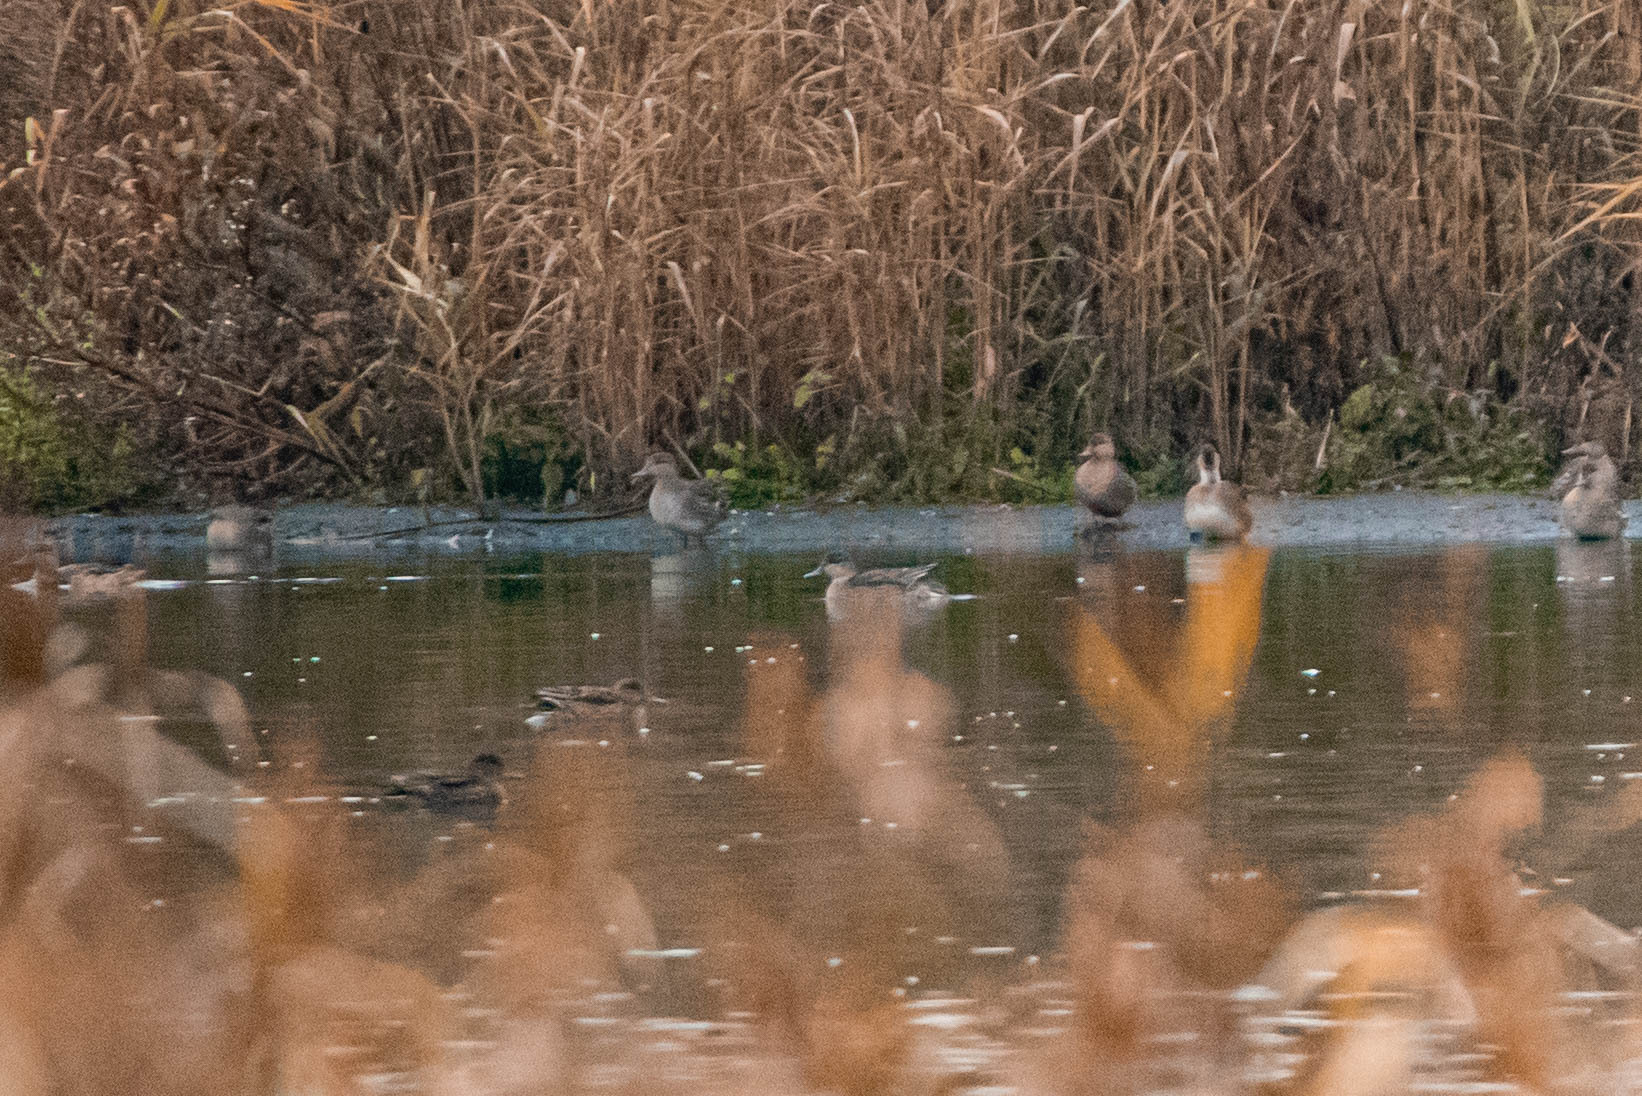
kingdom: Animalia
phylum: Chordata
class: Aves
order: Anseriformes
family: Anatidae
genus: Anas
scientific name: Anas crecca
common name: Eurasian teal
